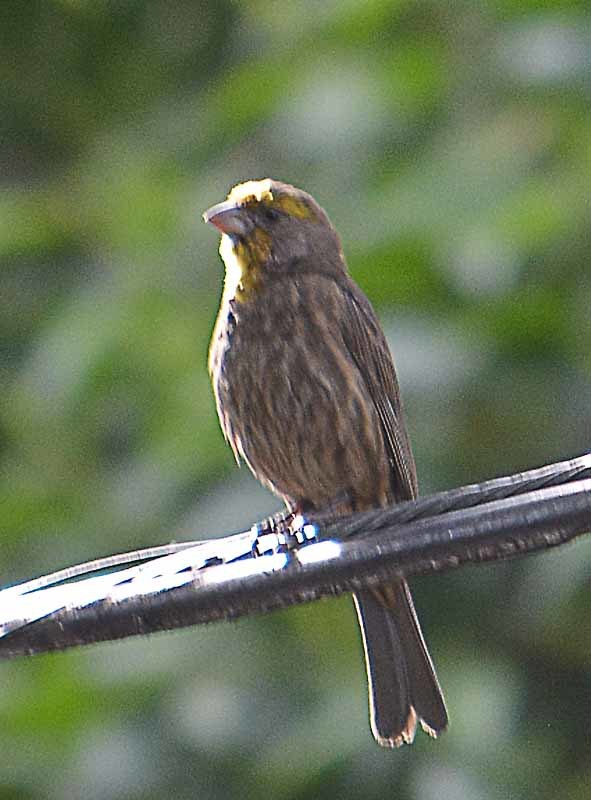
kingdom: Animalia
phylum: Chordata
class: Aves
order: Passeriformes
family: Fringillidae
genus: Haemorhous
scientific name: Haemorhous mexicanus
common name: House finch
